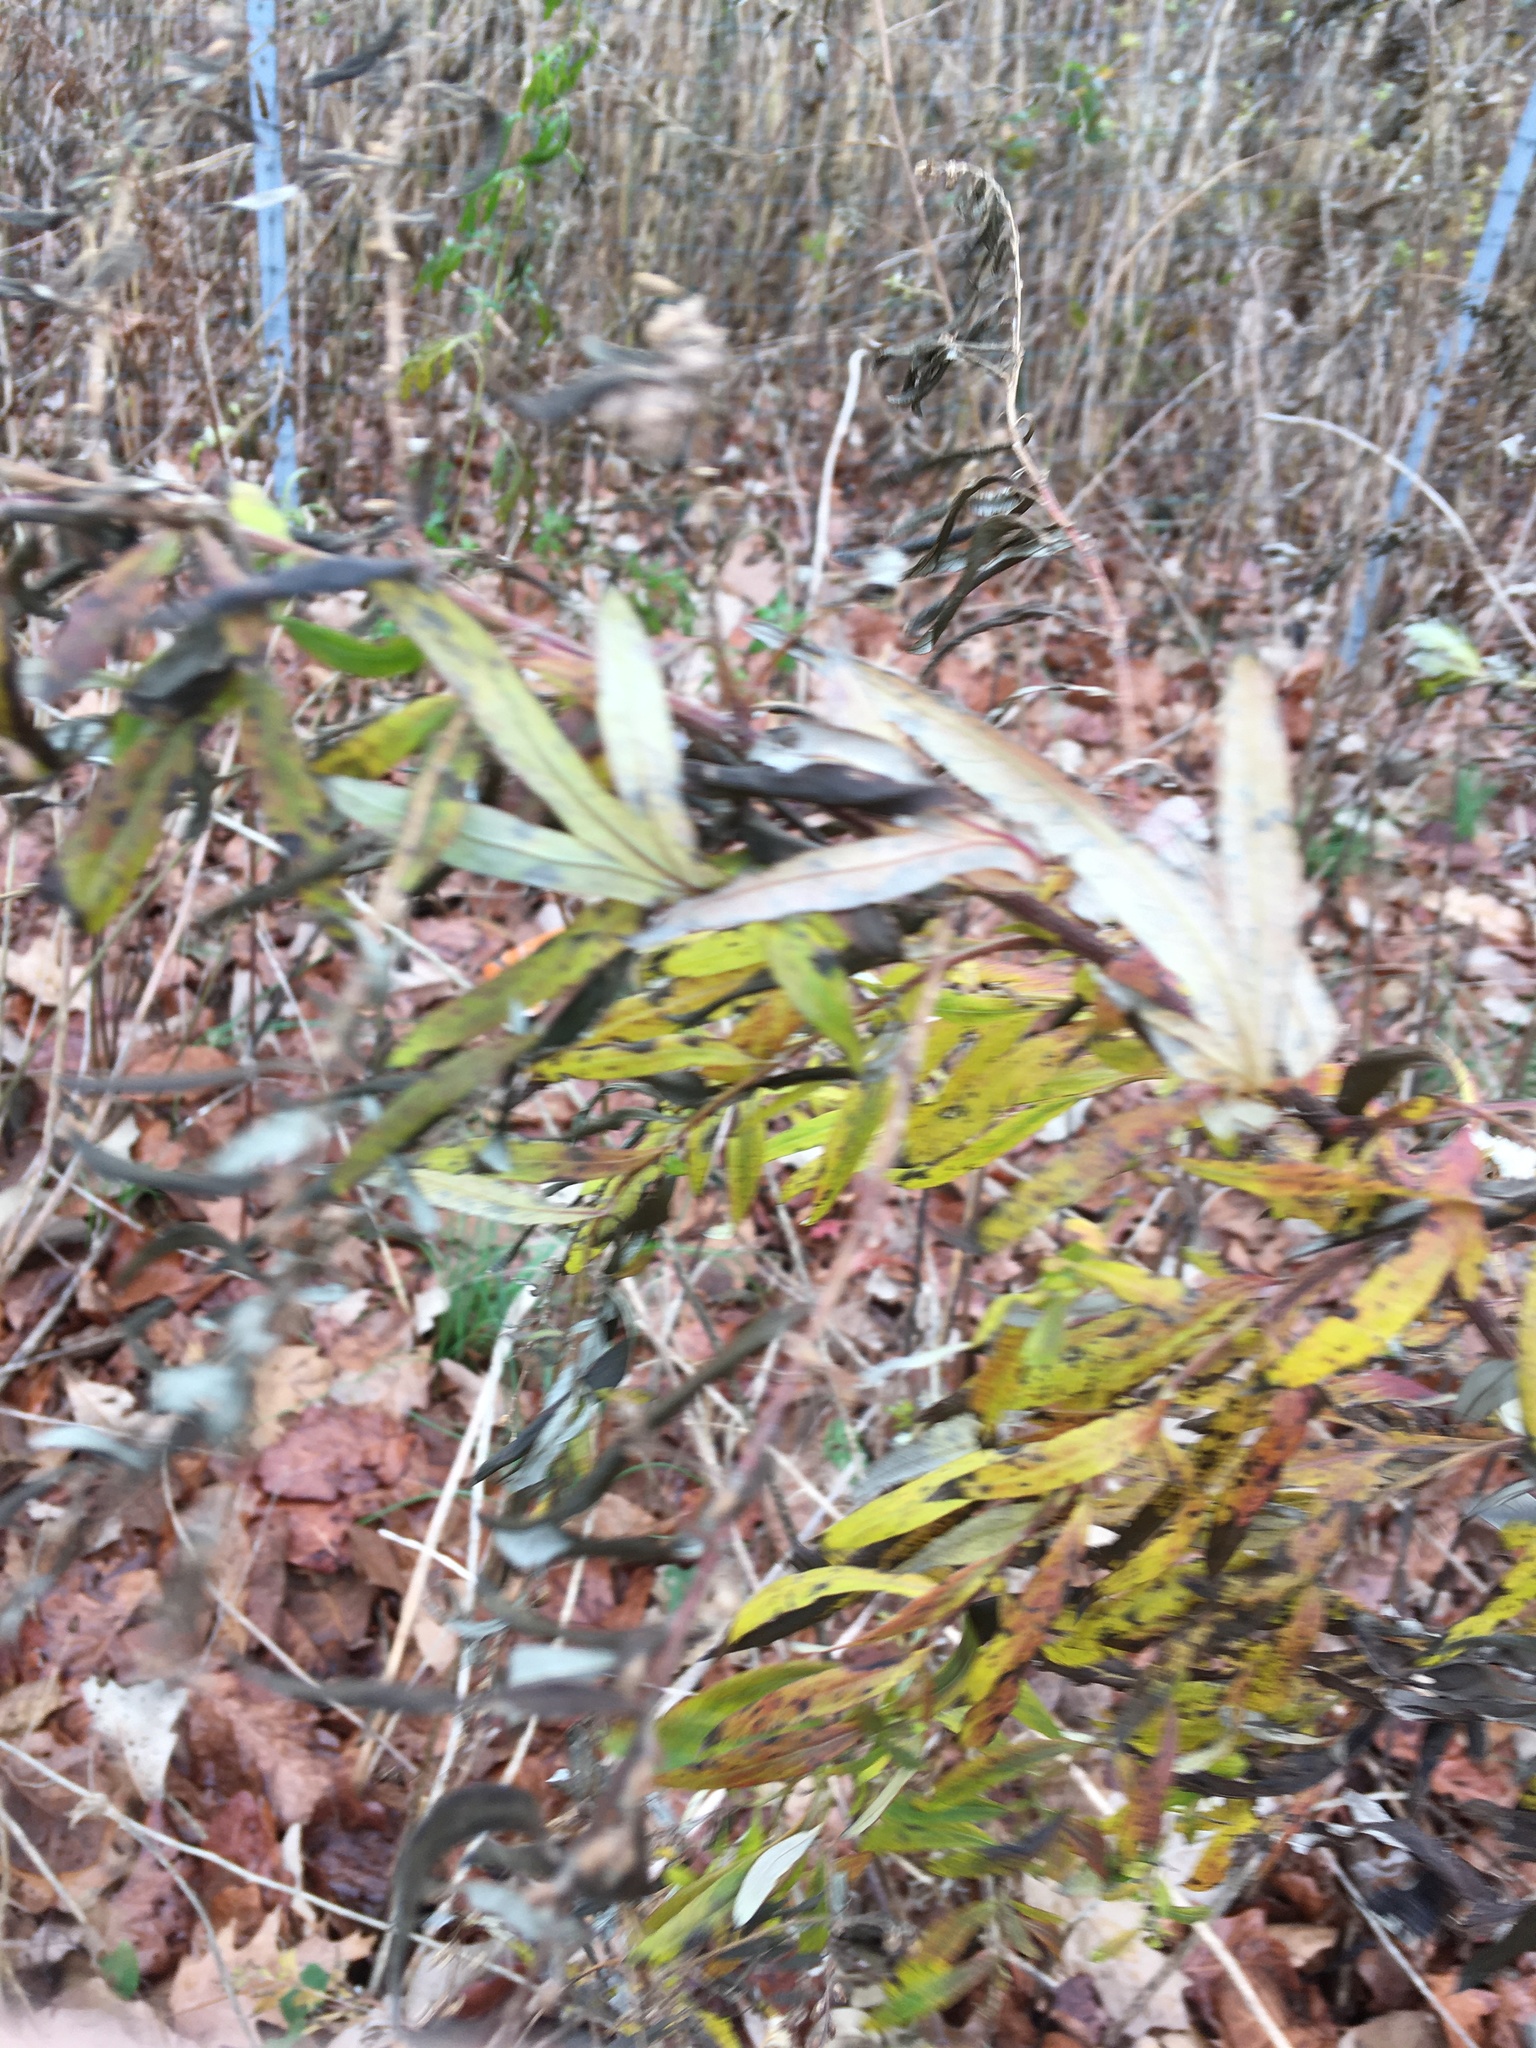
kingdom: Plantae
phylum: Tracheophyta
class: Magnoliopsida
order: Asterales
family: Asteraceae
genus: Artemisia
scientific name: Artemisia vulgaris
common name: Mugwort
